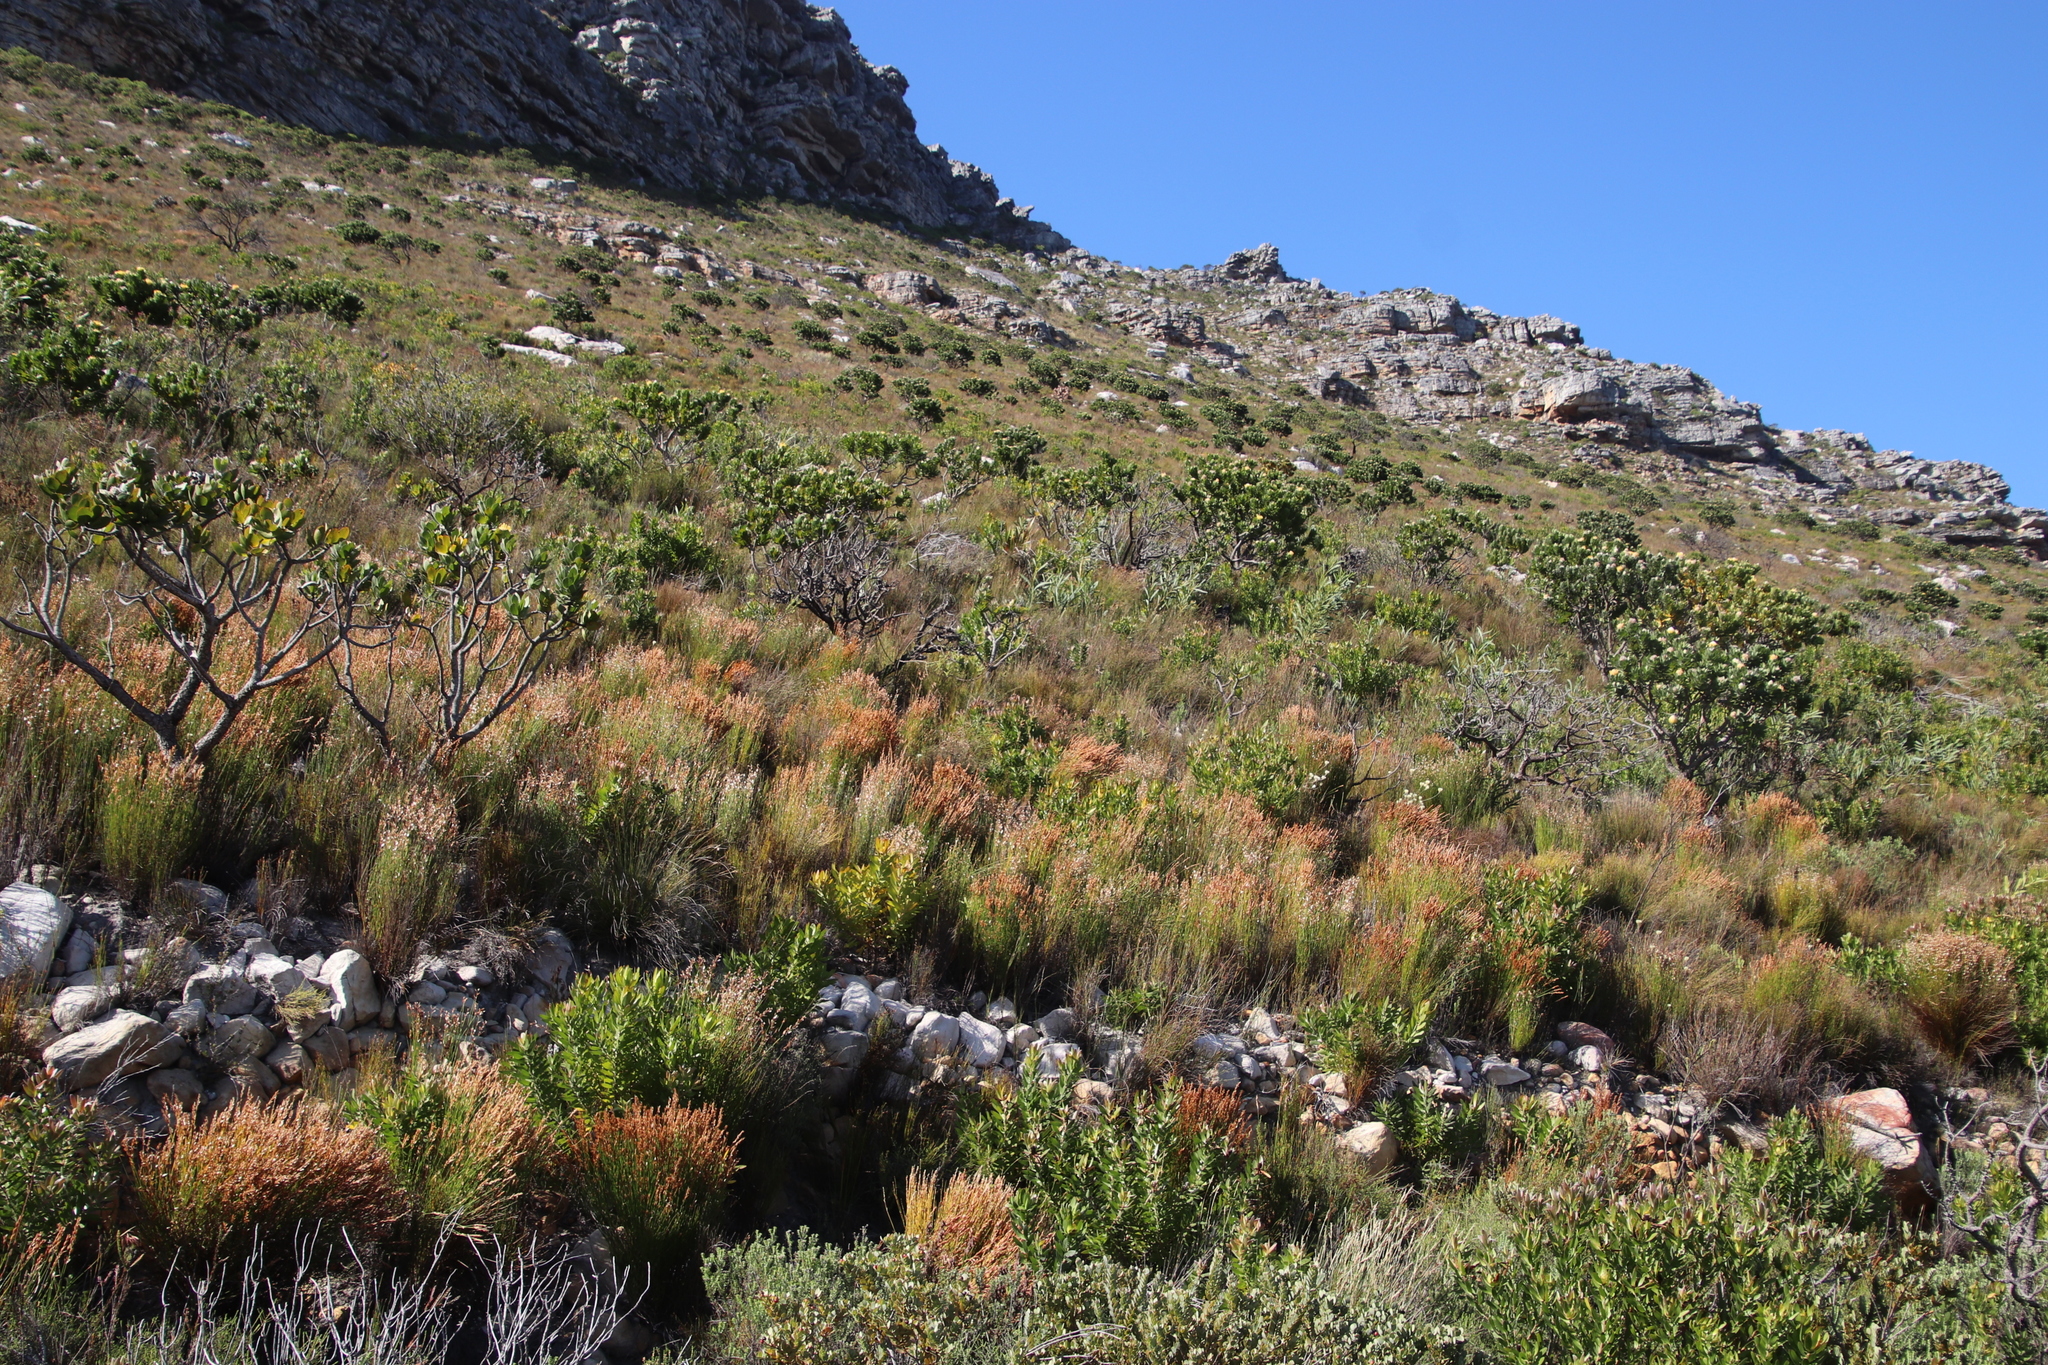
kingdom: Plantae
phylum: Tracheophyta
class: Liliopsida
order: Poales
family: Restionaceae
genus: Elegia
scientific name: Elegia stipularis
